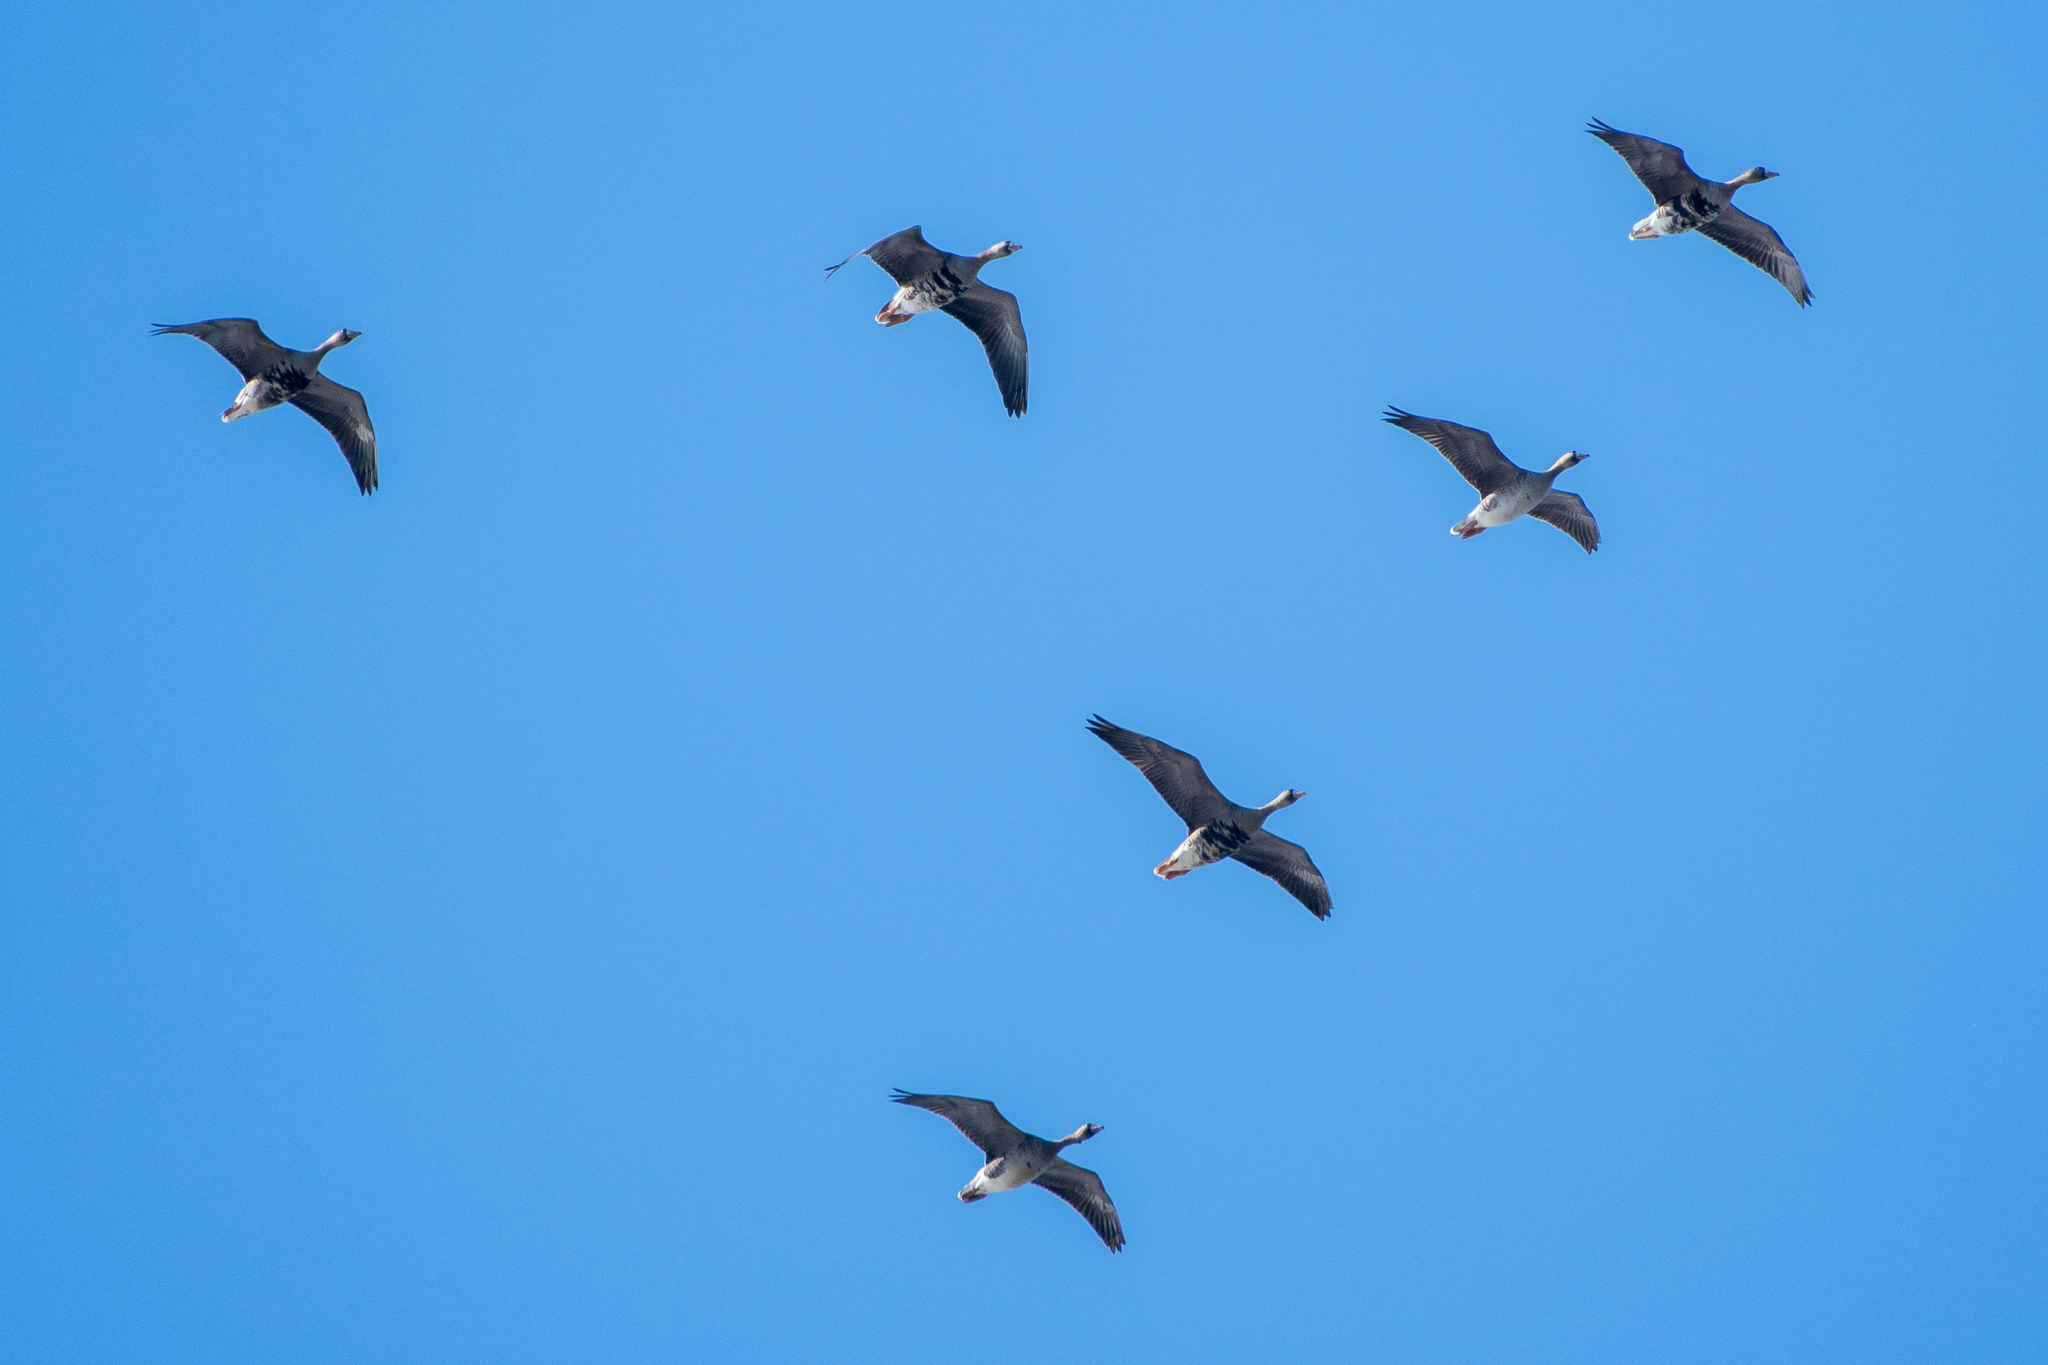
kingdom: Animalia
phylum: Chordata
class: Aves
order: Anseriformes
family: Anatidae
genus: Anser
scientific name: Anser albifrons
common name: Greater white-fronted goose
